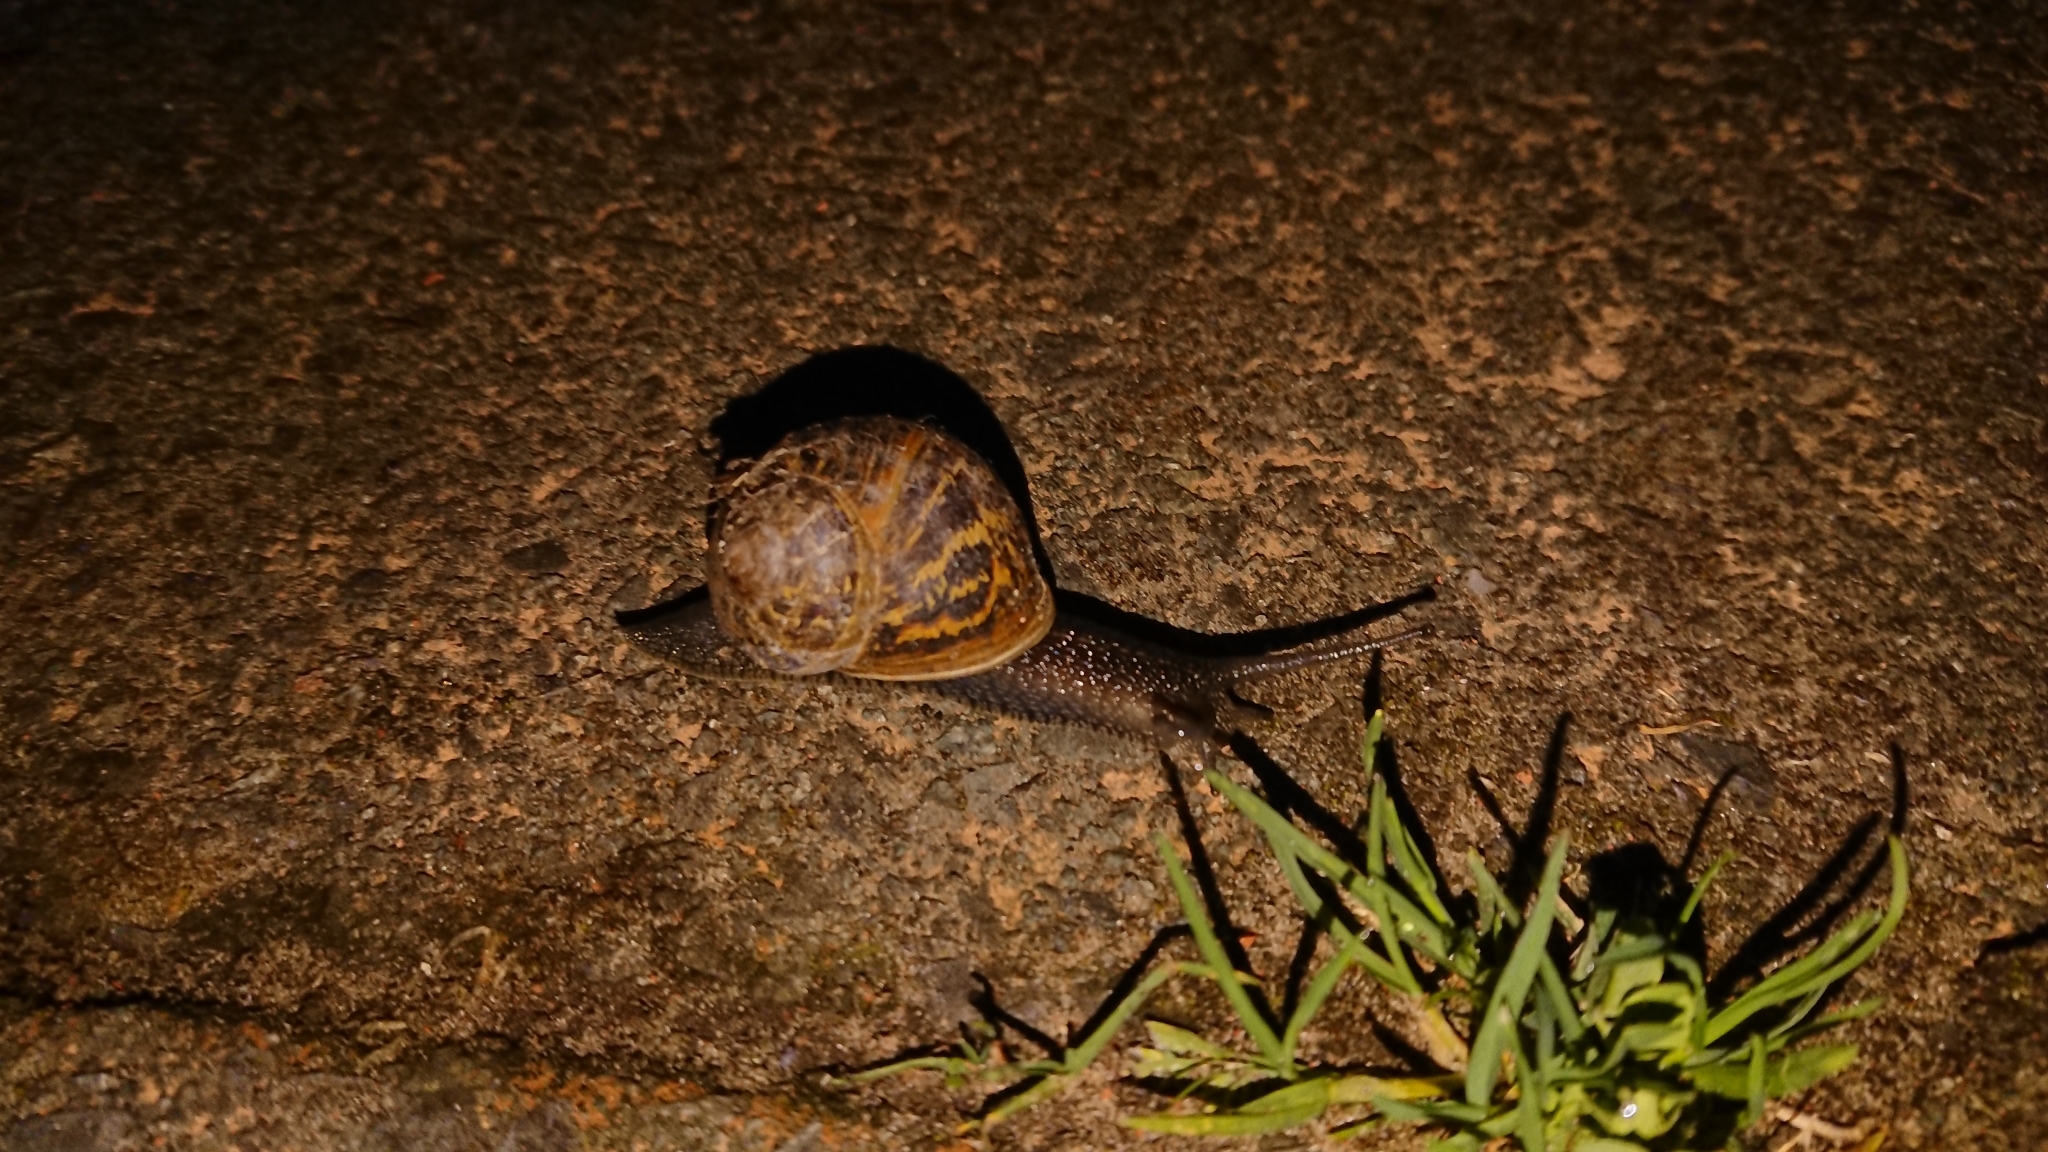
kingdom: Animalia
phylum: Mollusca
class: Gastropoda
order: Stylommatophora
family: Helicidae
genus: Cornu
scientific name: Cornu aspersum
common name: Brown garden snail
